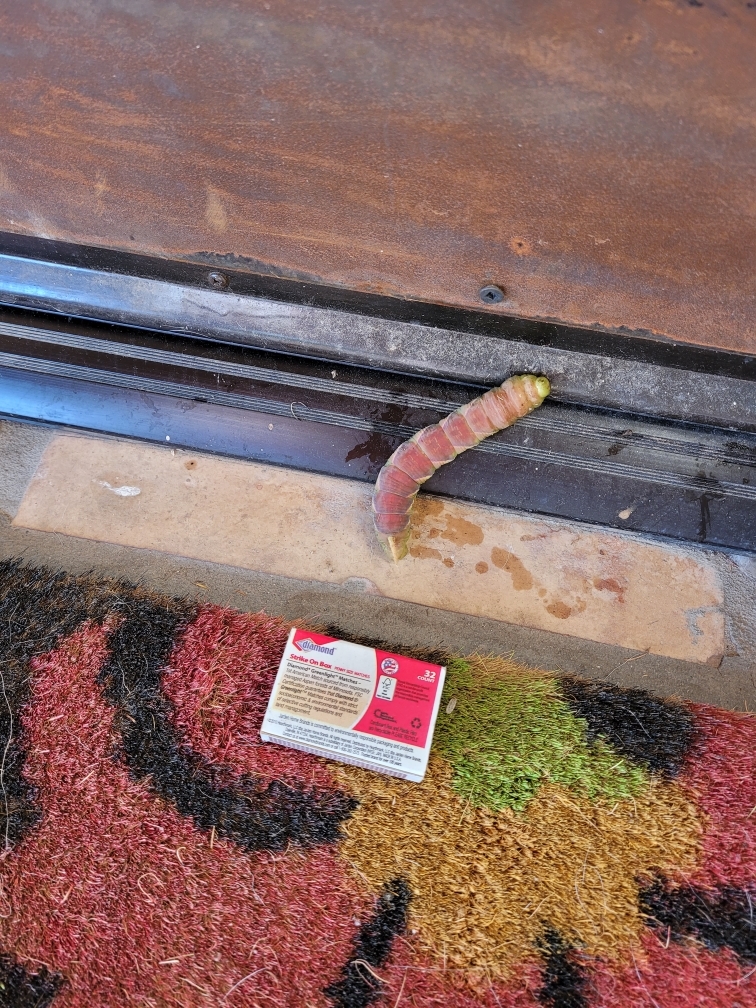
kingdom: Animalia
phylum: Arthropoda
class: Insecta
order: Lepidoptera
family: Sphingidae
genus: Manduca
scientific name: Manduca rustica
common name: Rustic sphinx
